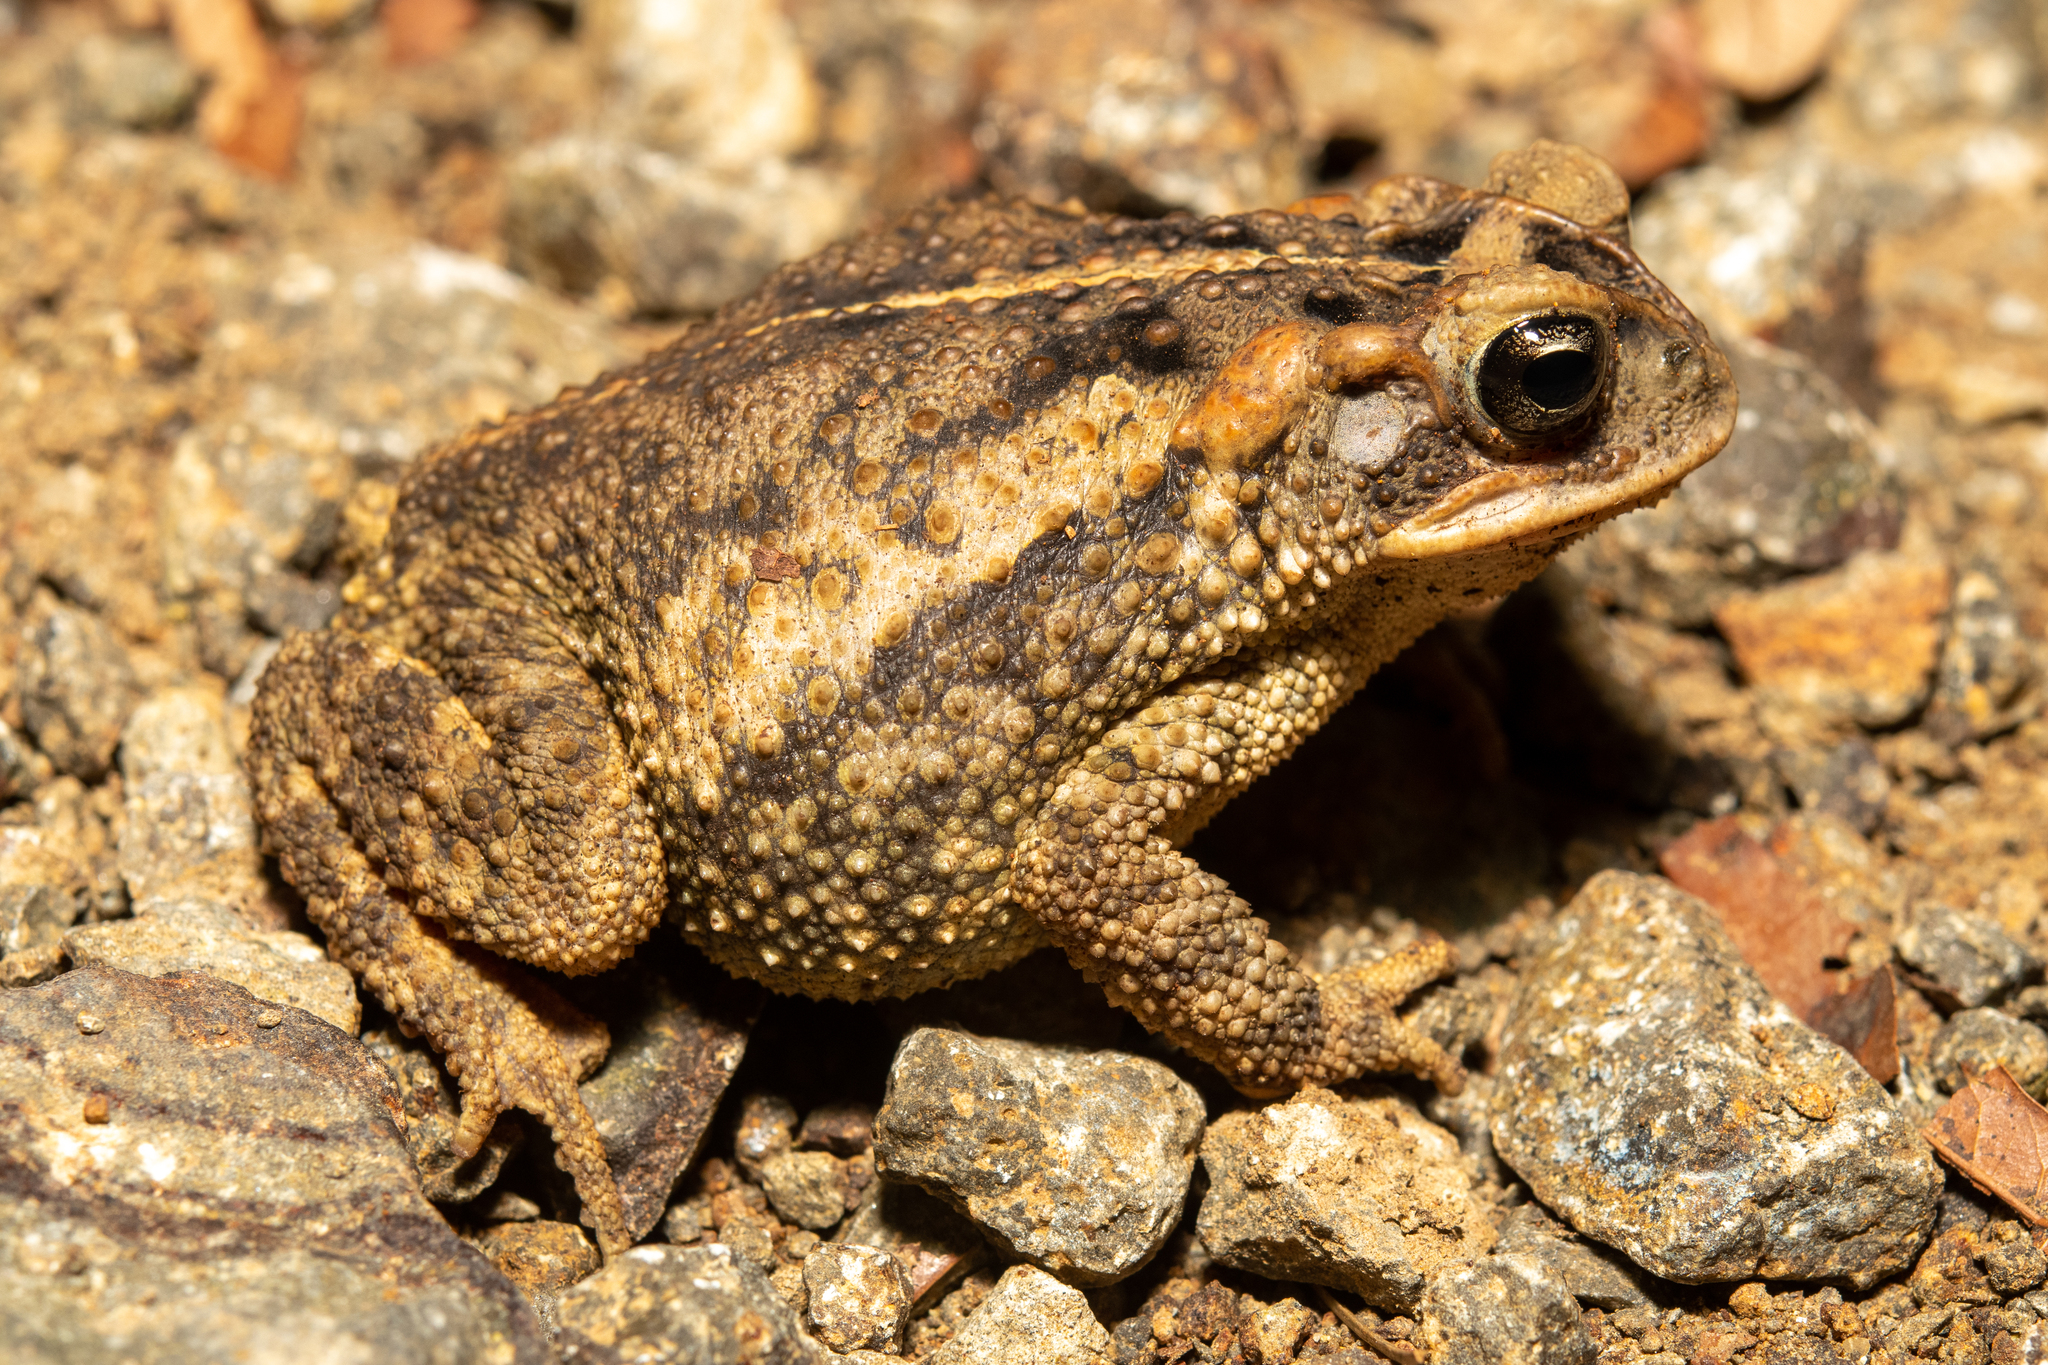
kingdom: Animalia
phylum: Chordata
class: Amphibia
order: Anura
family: Bufonidae
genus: Incilius
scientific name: Incilius porteri
